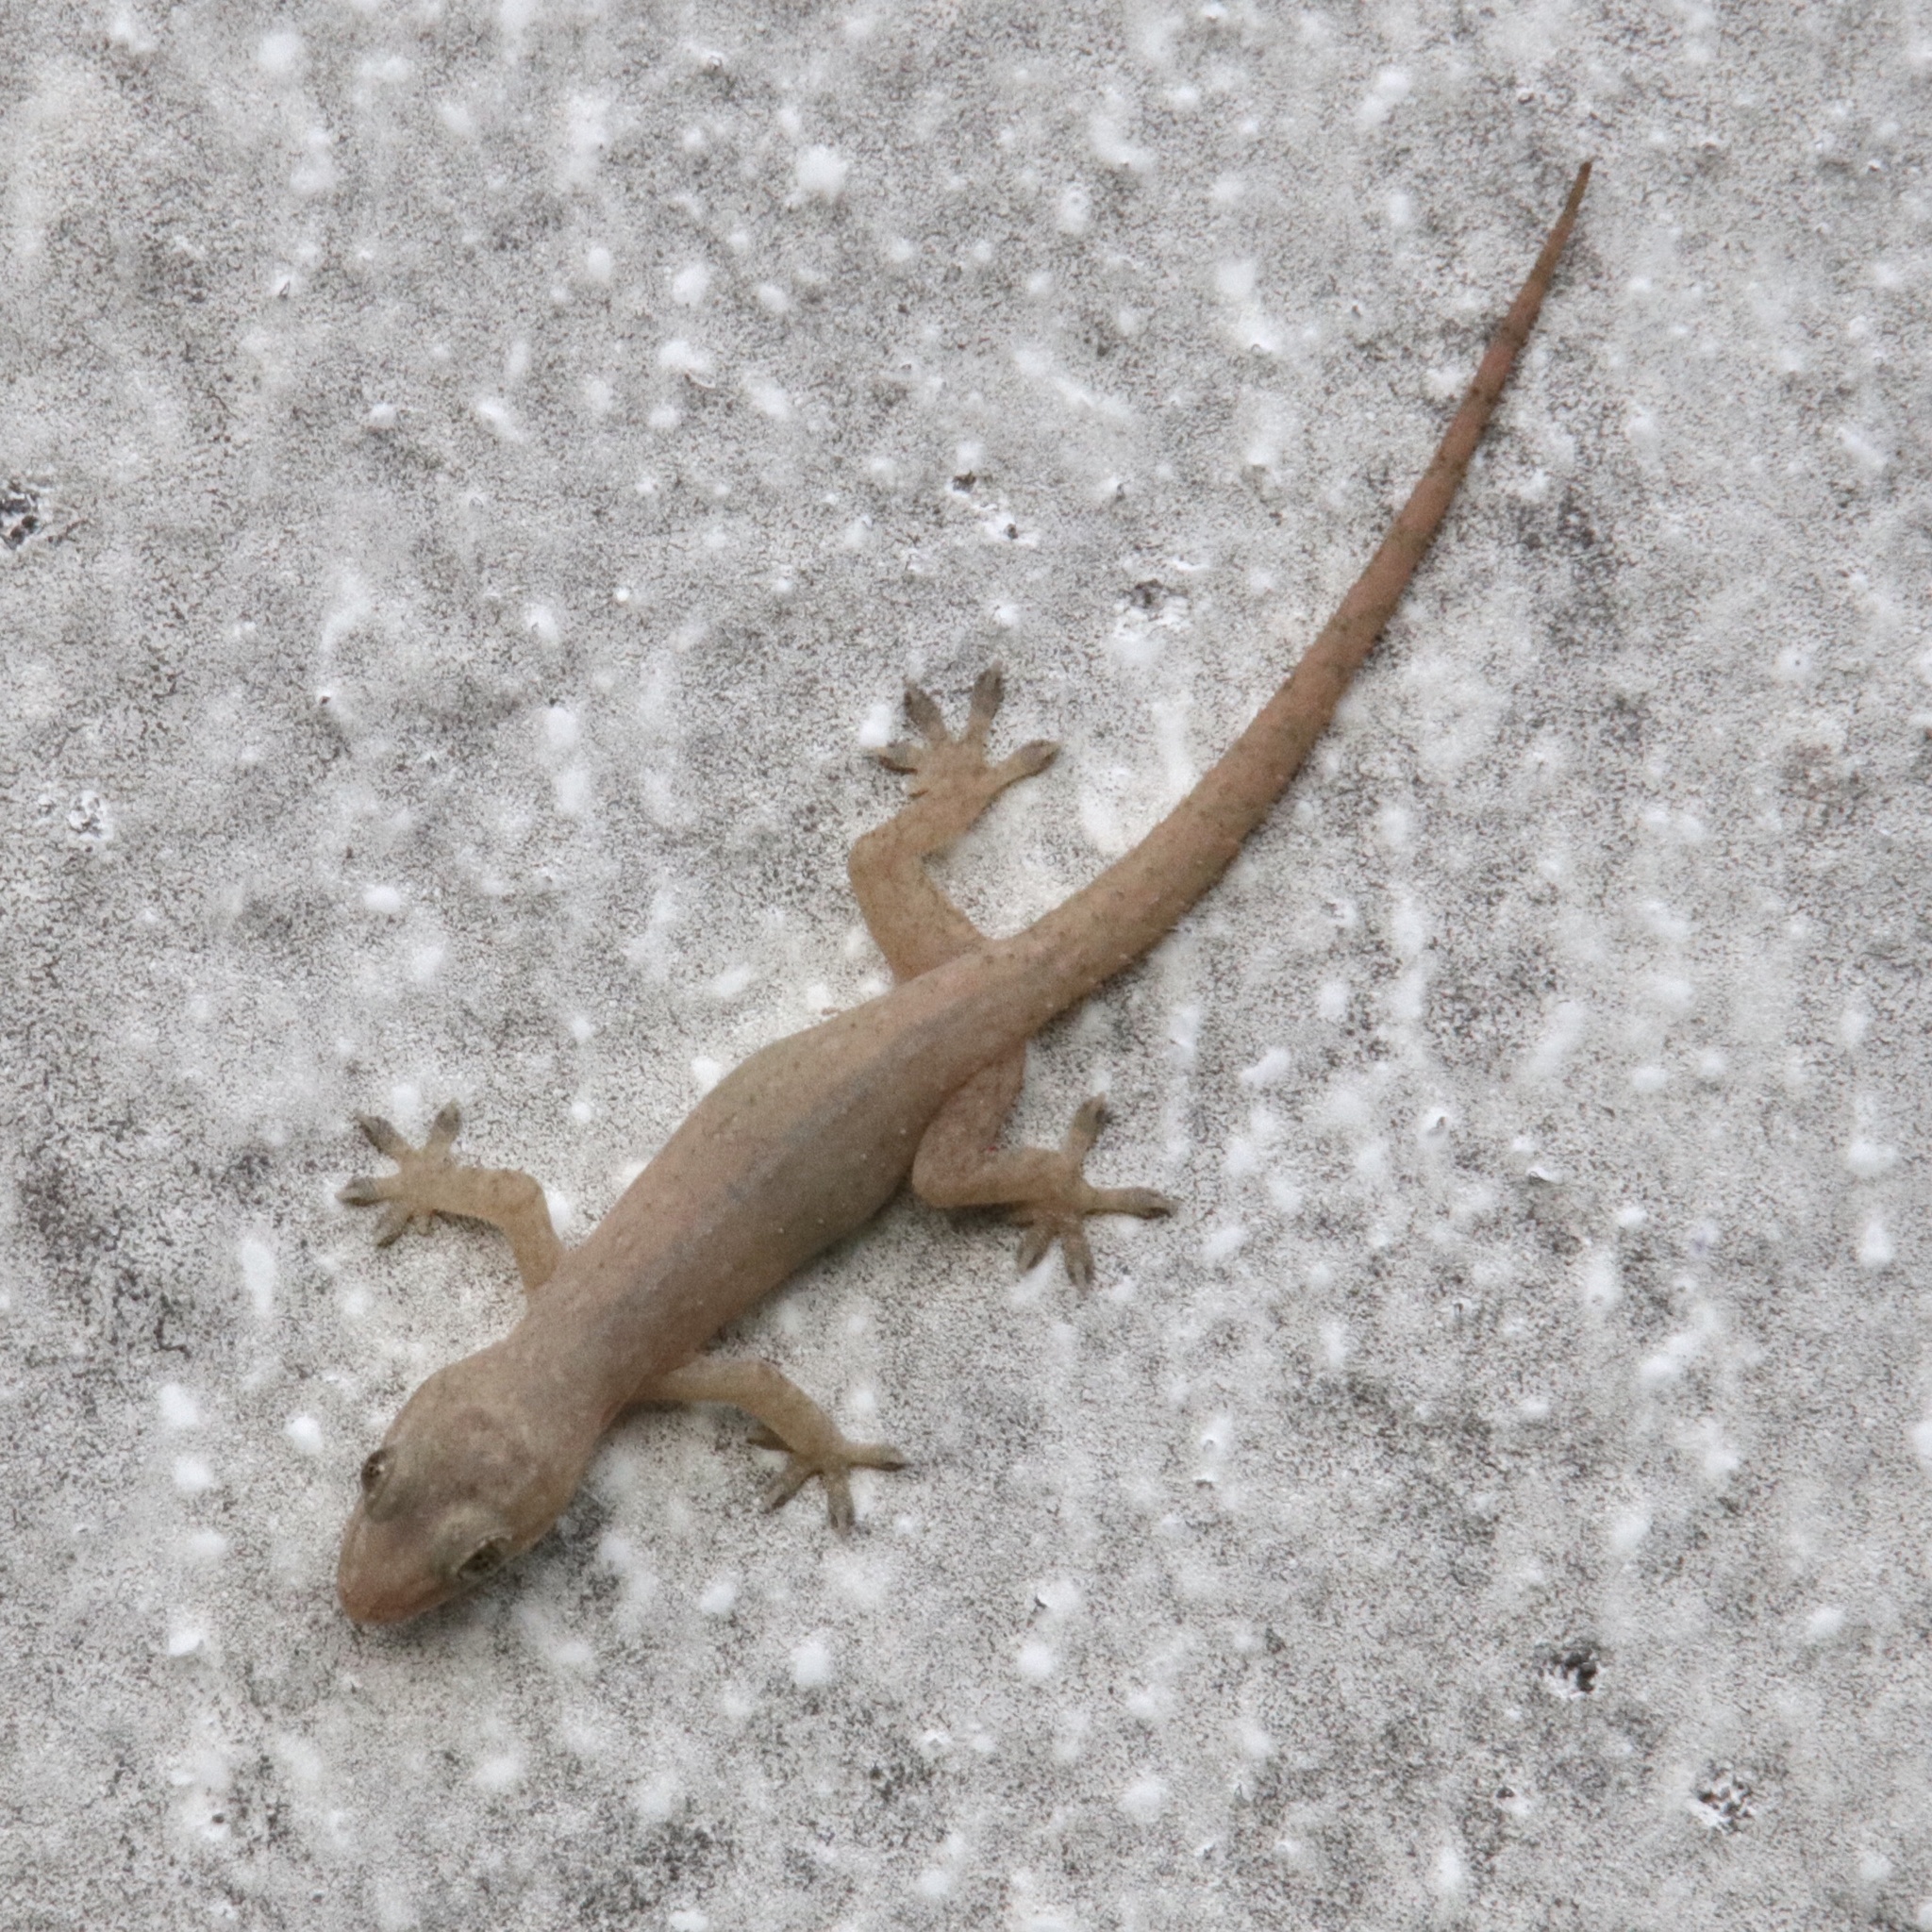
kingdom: Animalia
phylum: Chordata
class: Squamata
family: Gekkonidae
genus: Hemidactylus
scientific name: Hemidactylus frenatus
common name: Common house gecko
